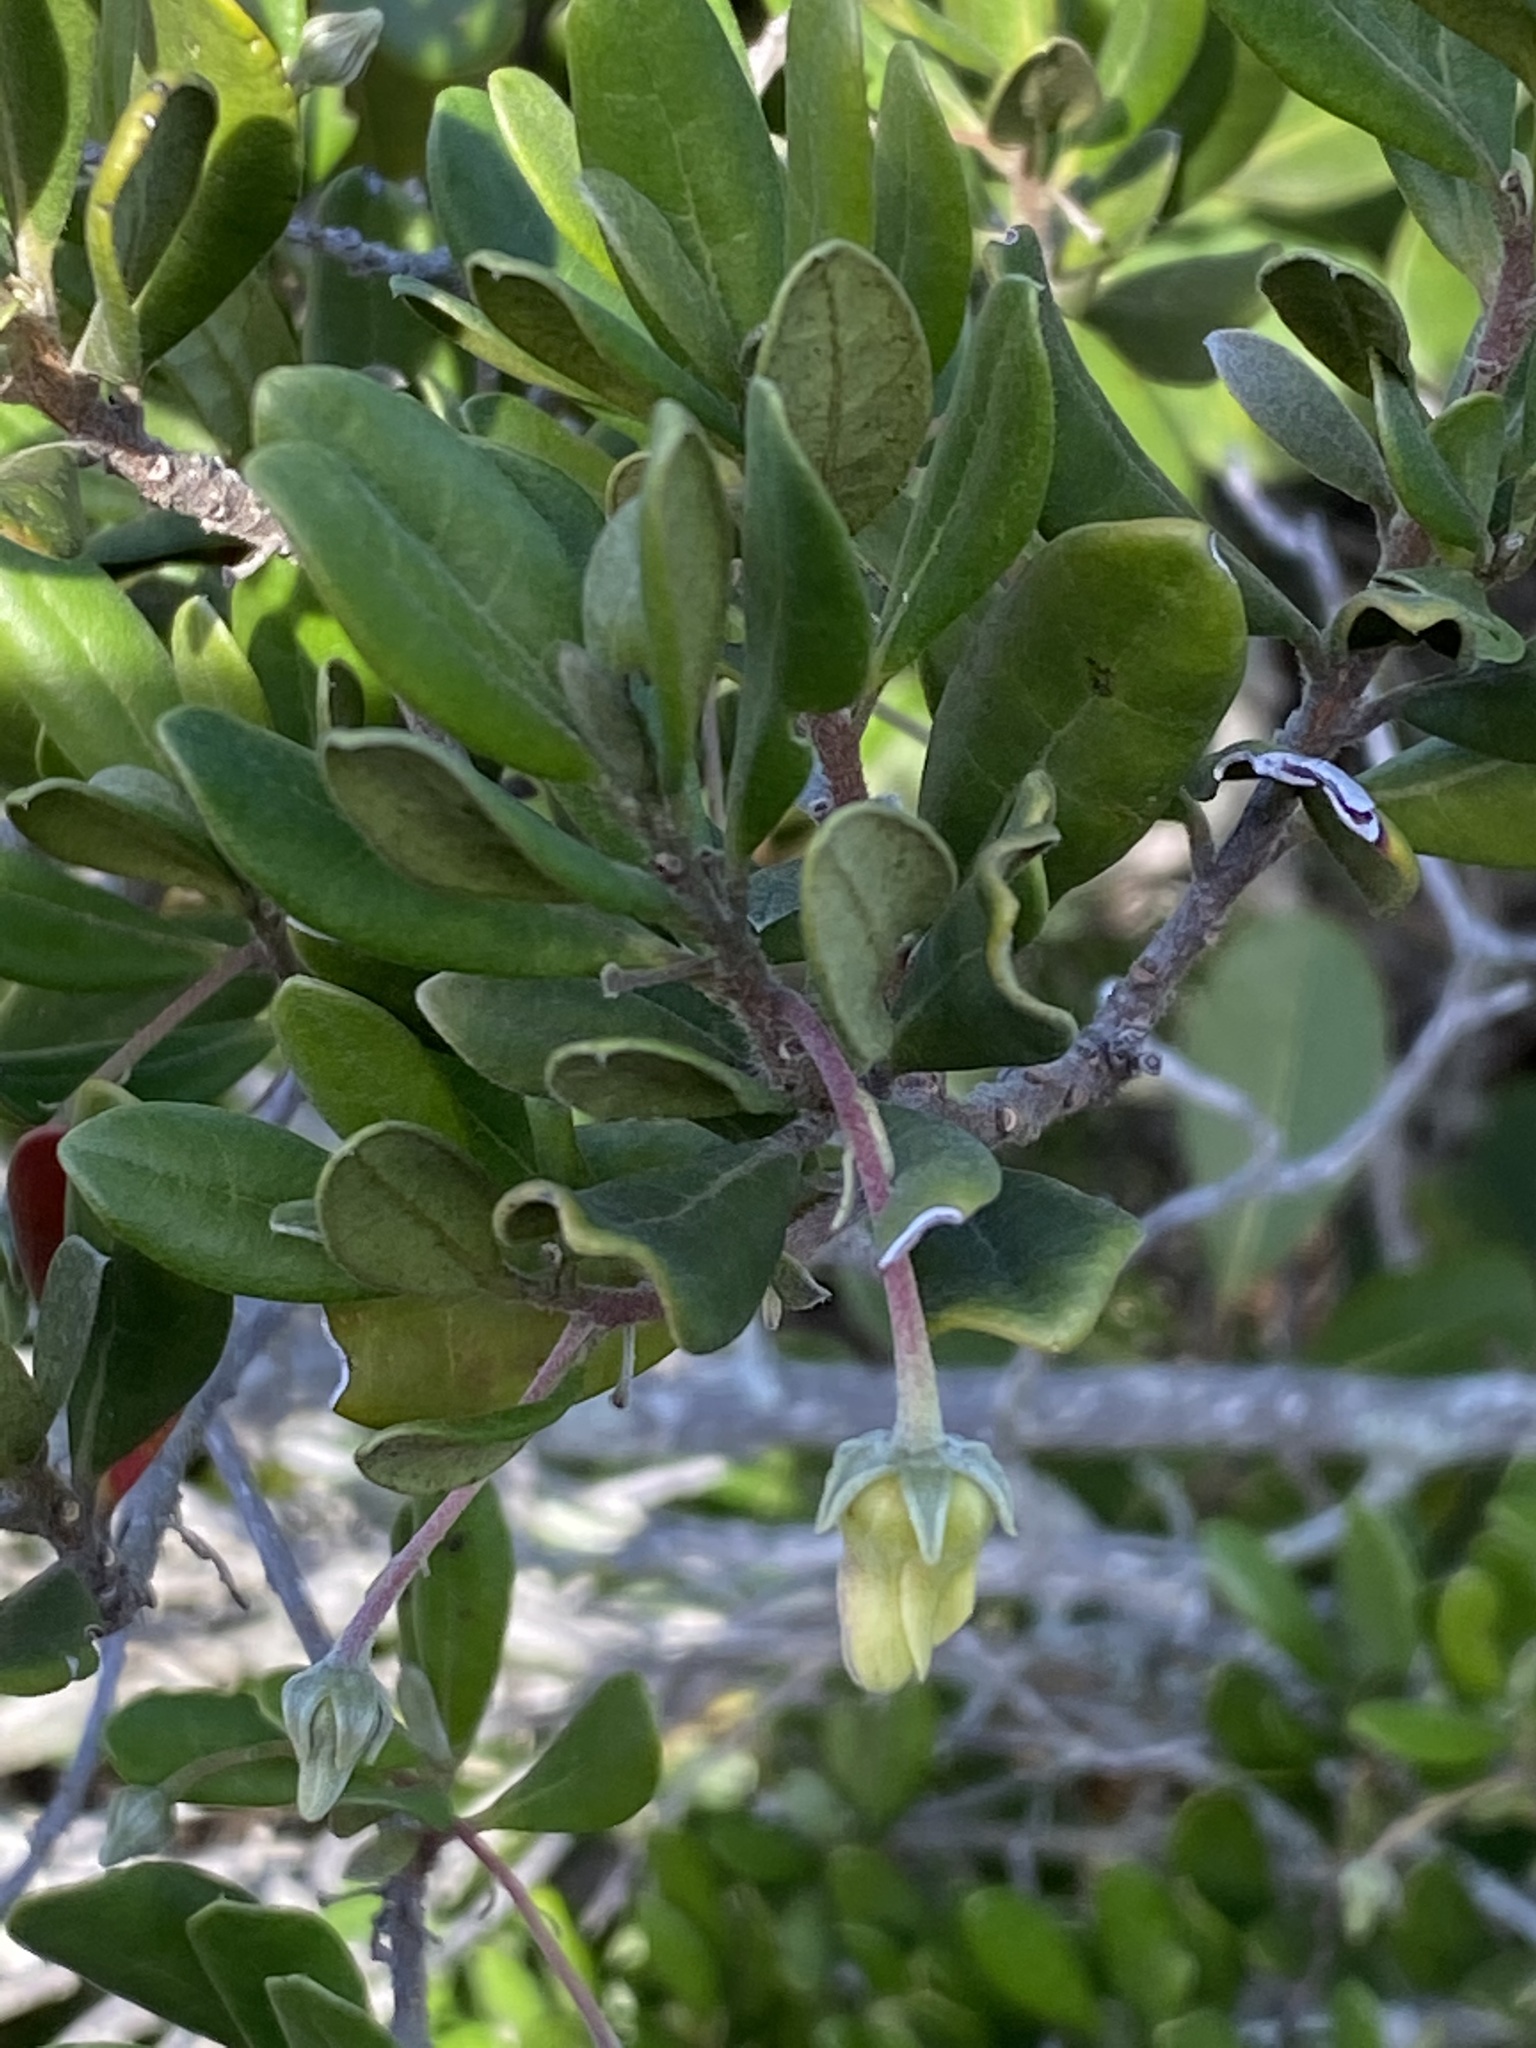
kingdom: Plantae
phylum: Tracheophyta
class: Magnoliopsida
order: Ericales
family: Ebenaceae
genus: Diospyros
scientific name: Diospyros dichrophylla
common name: Common star-apple
